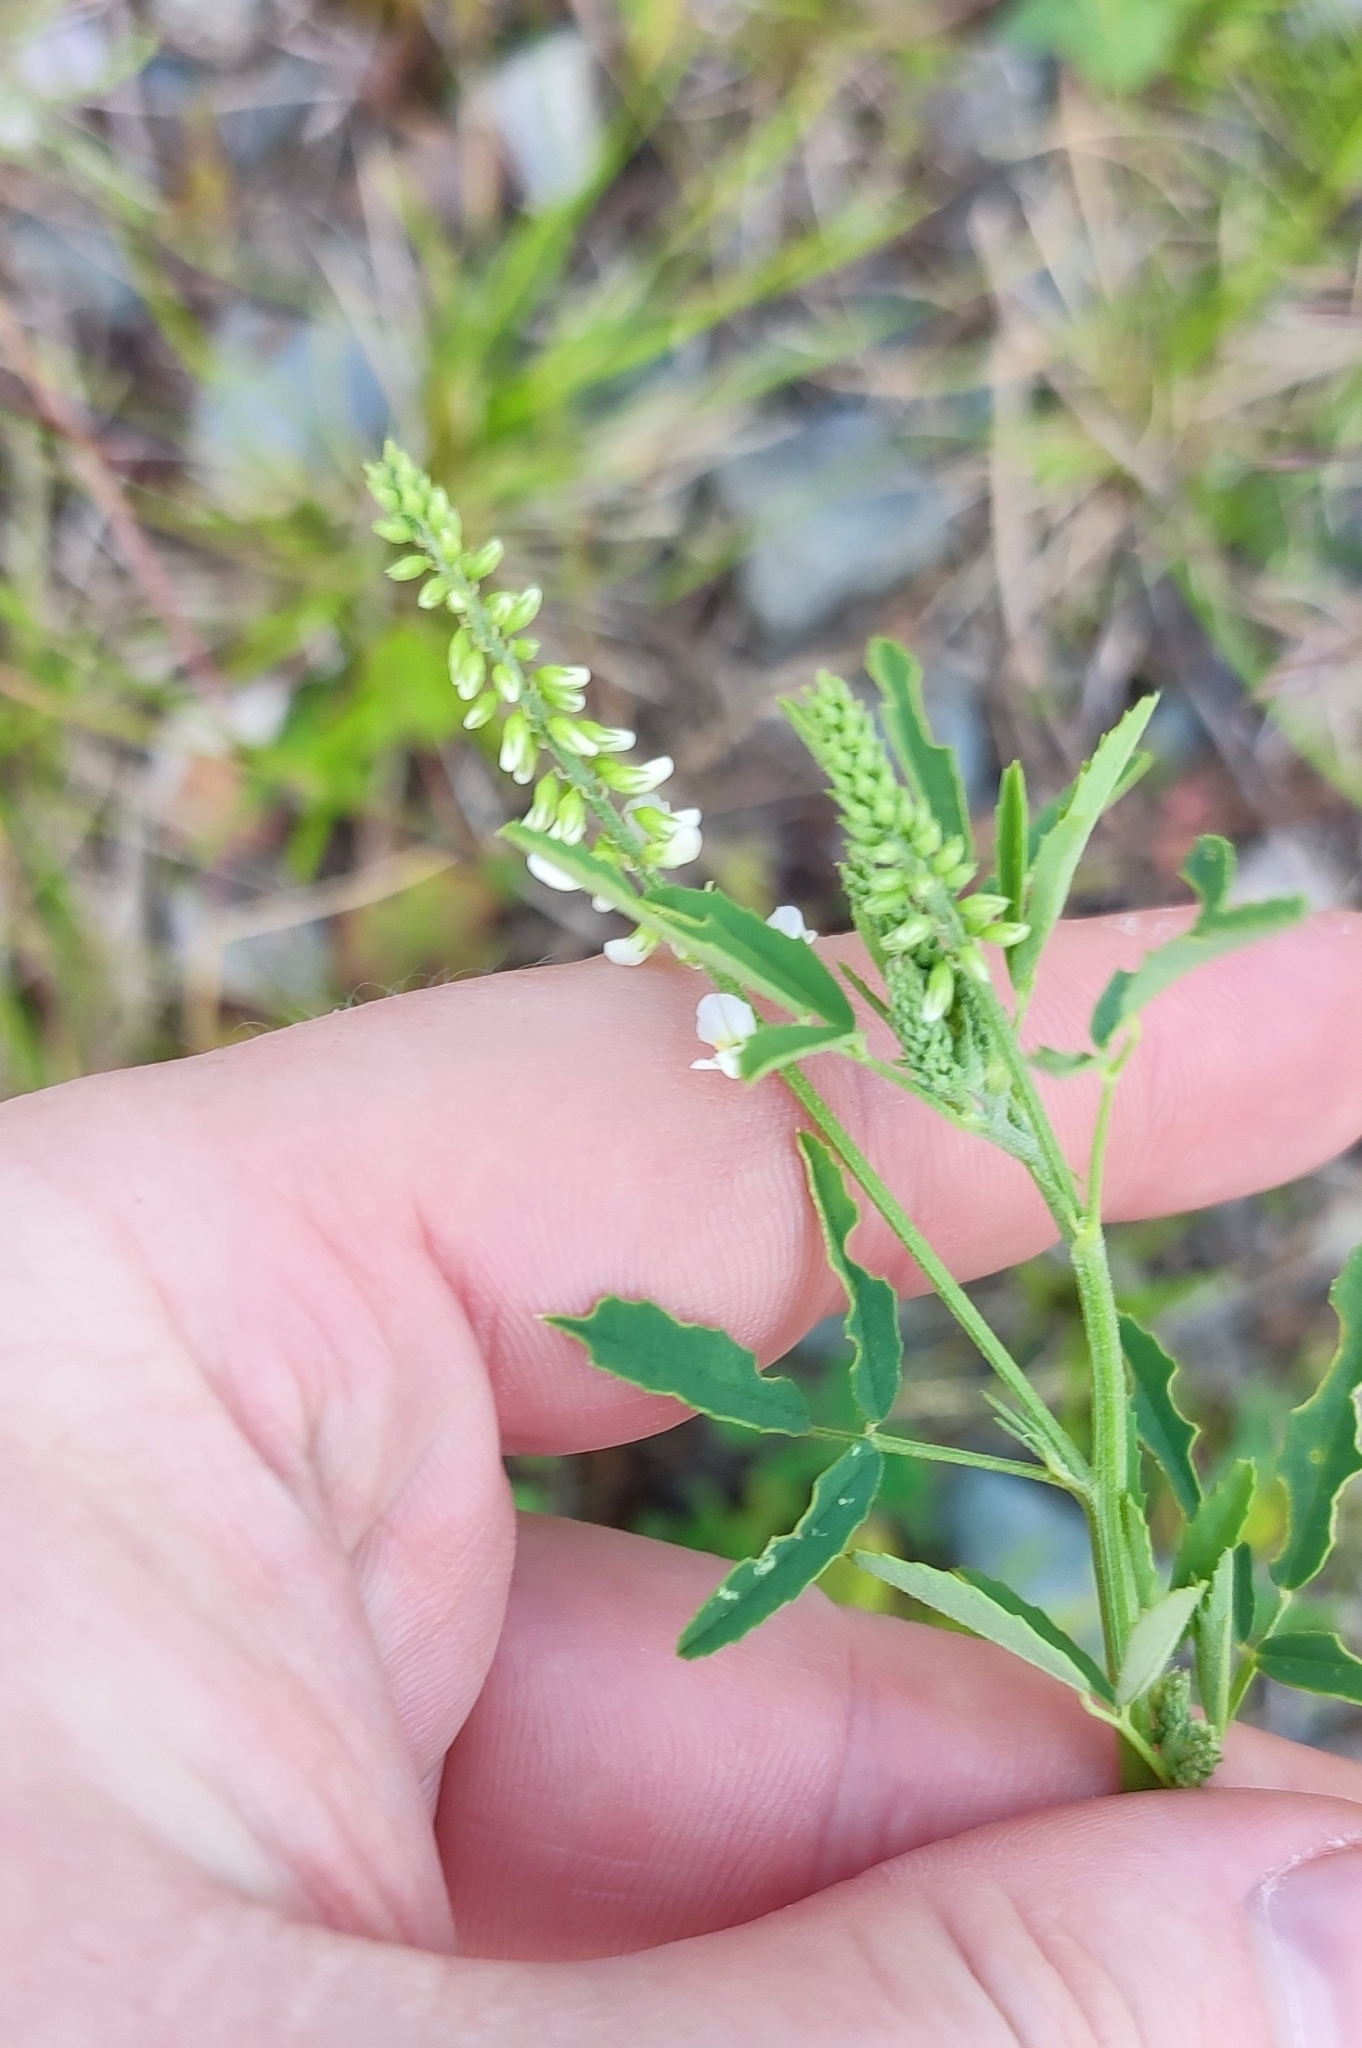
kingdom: Plantae
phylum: Tracheophyta
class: Magnoliopsida
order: Fabales
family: Fabaceae
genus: Melilotus
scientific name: Melilotus albus
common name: White melilot
